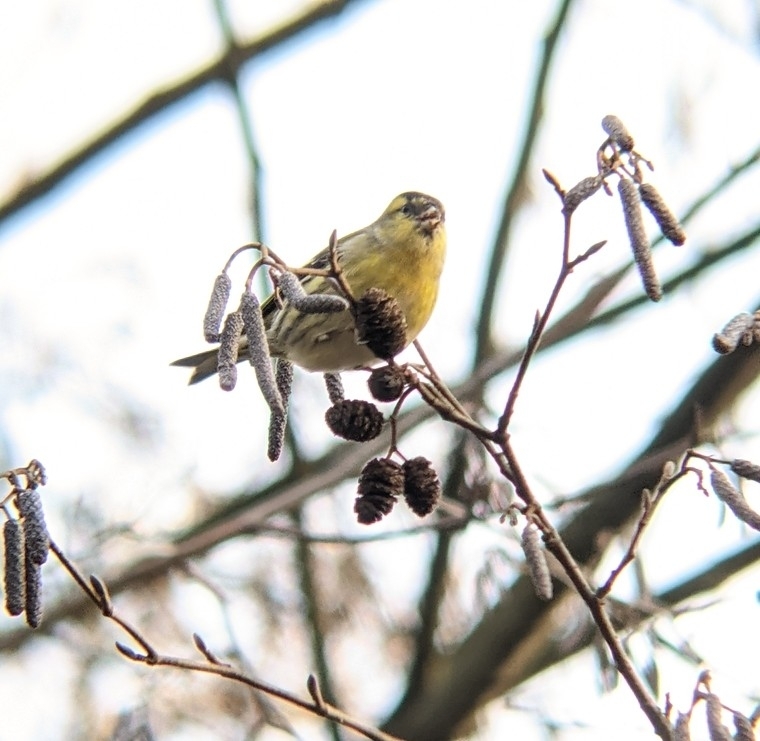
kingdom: Animalia
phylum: Chordata
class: Aves
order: Passeriformes
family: Fringillidae
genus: Spinus
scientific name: Spinus spinus
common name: Eurasian siskin
